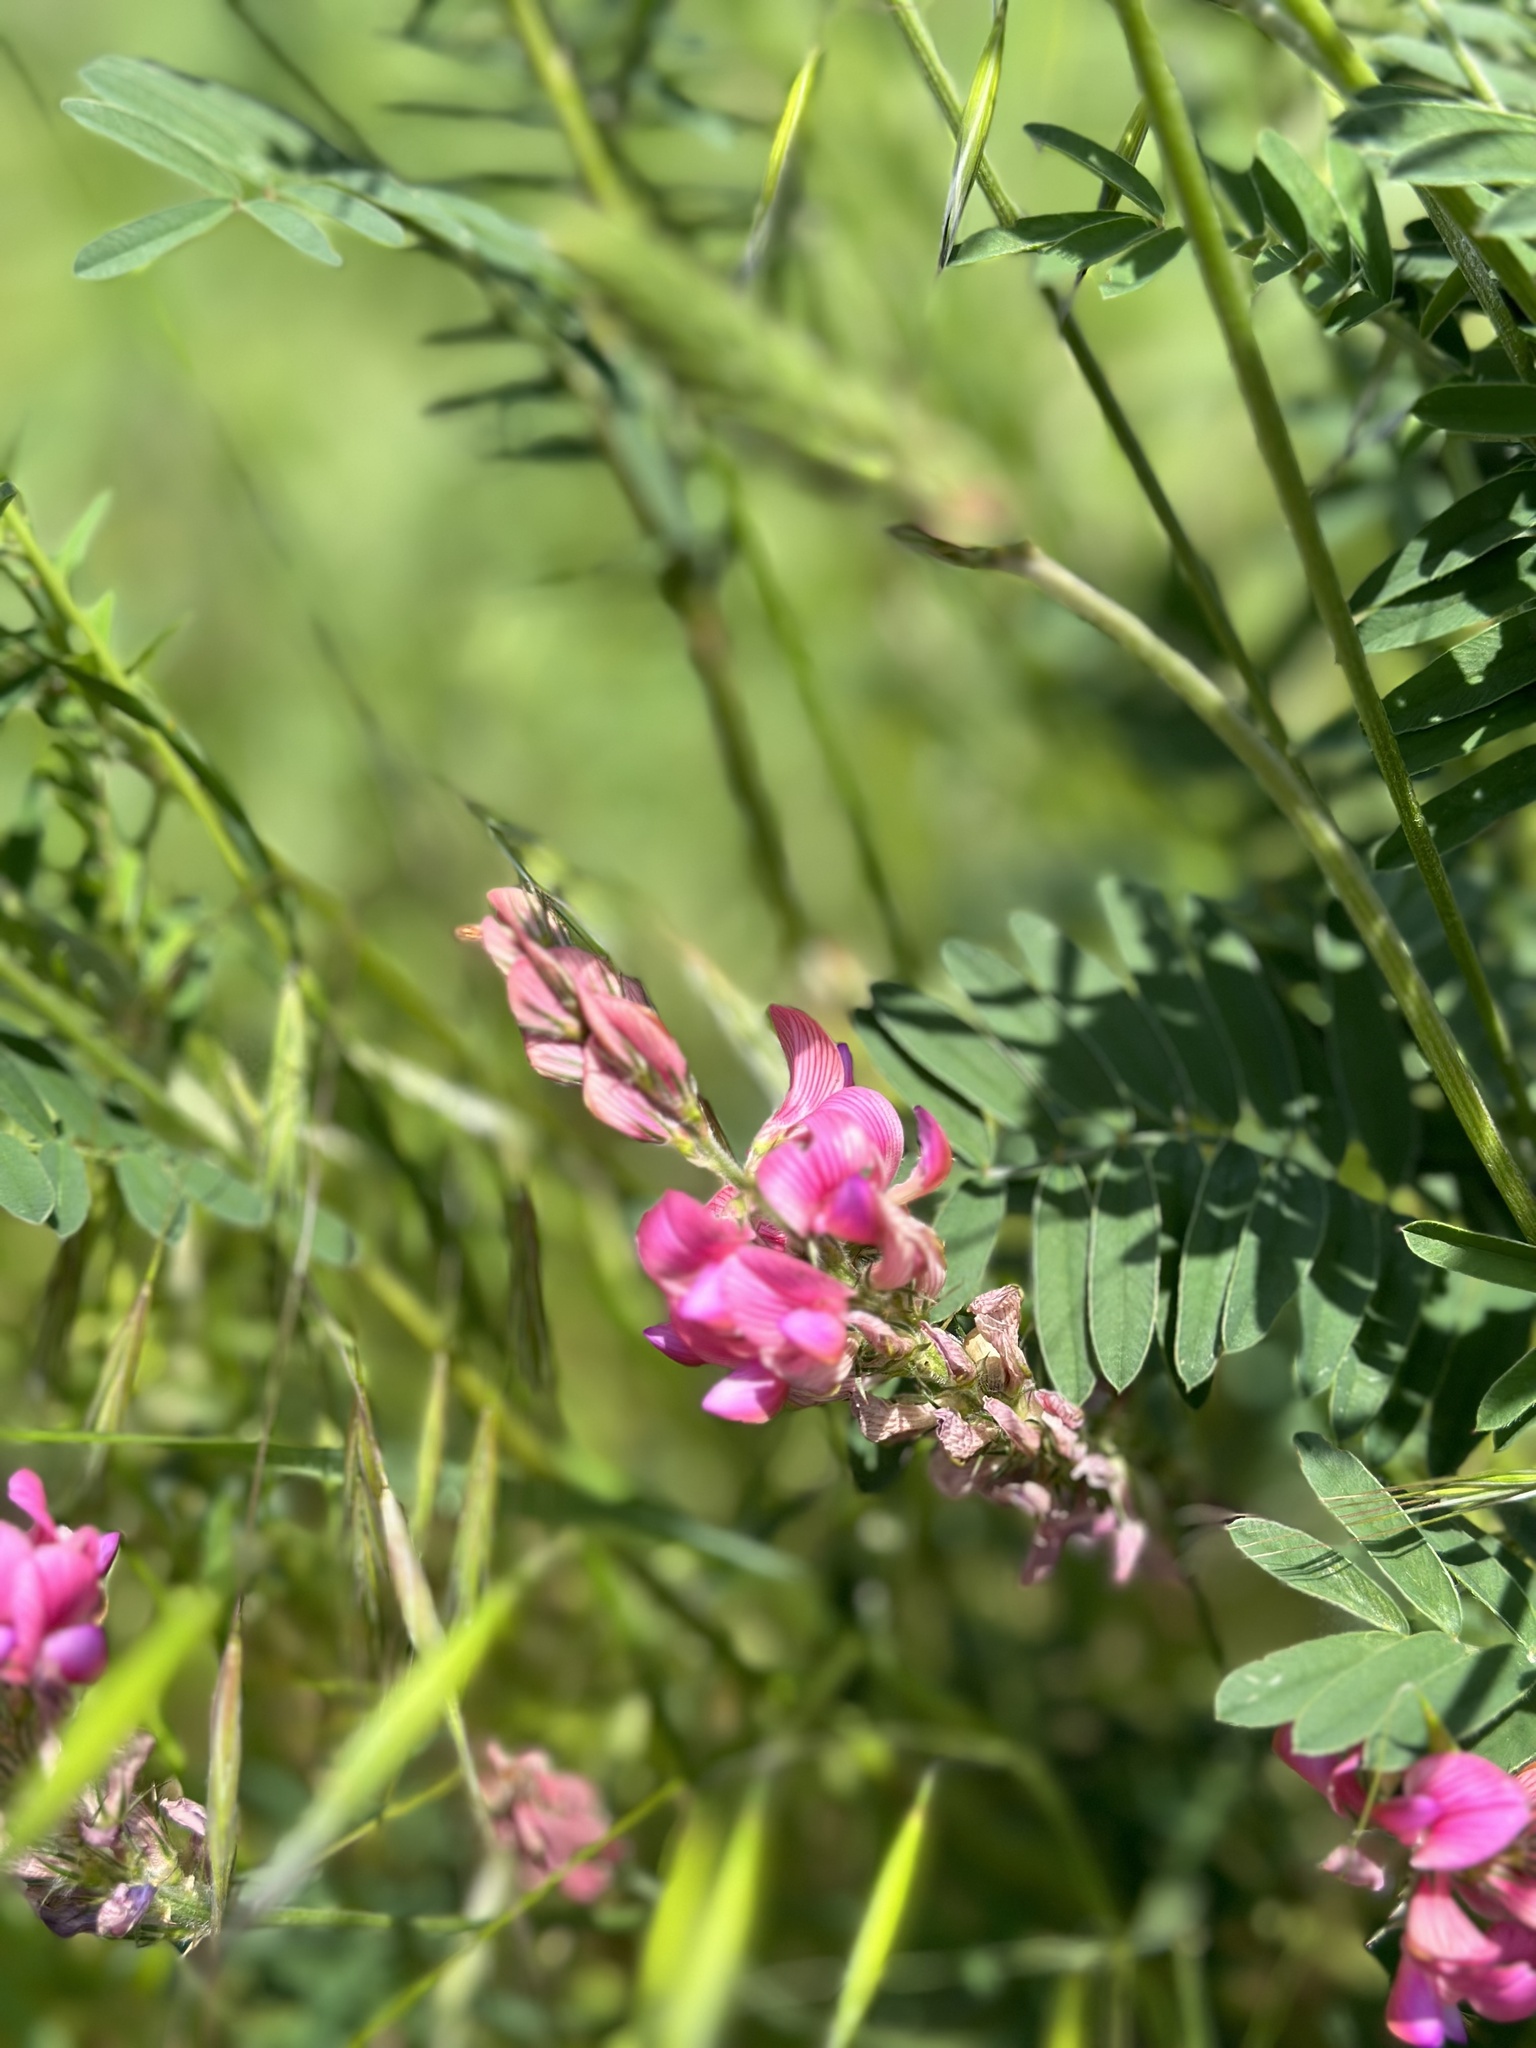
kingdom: Plantae
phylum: Tracheophyta
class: Magnoliopsida
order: Fabales
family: Fabaceae
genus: Onobrychis
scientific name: Onobrychis viciifolia
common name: Sainfoin
